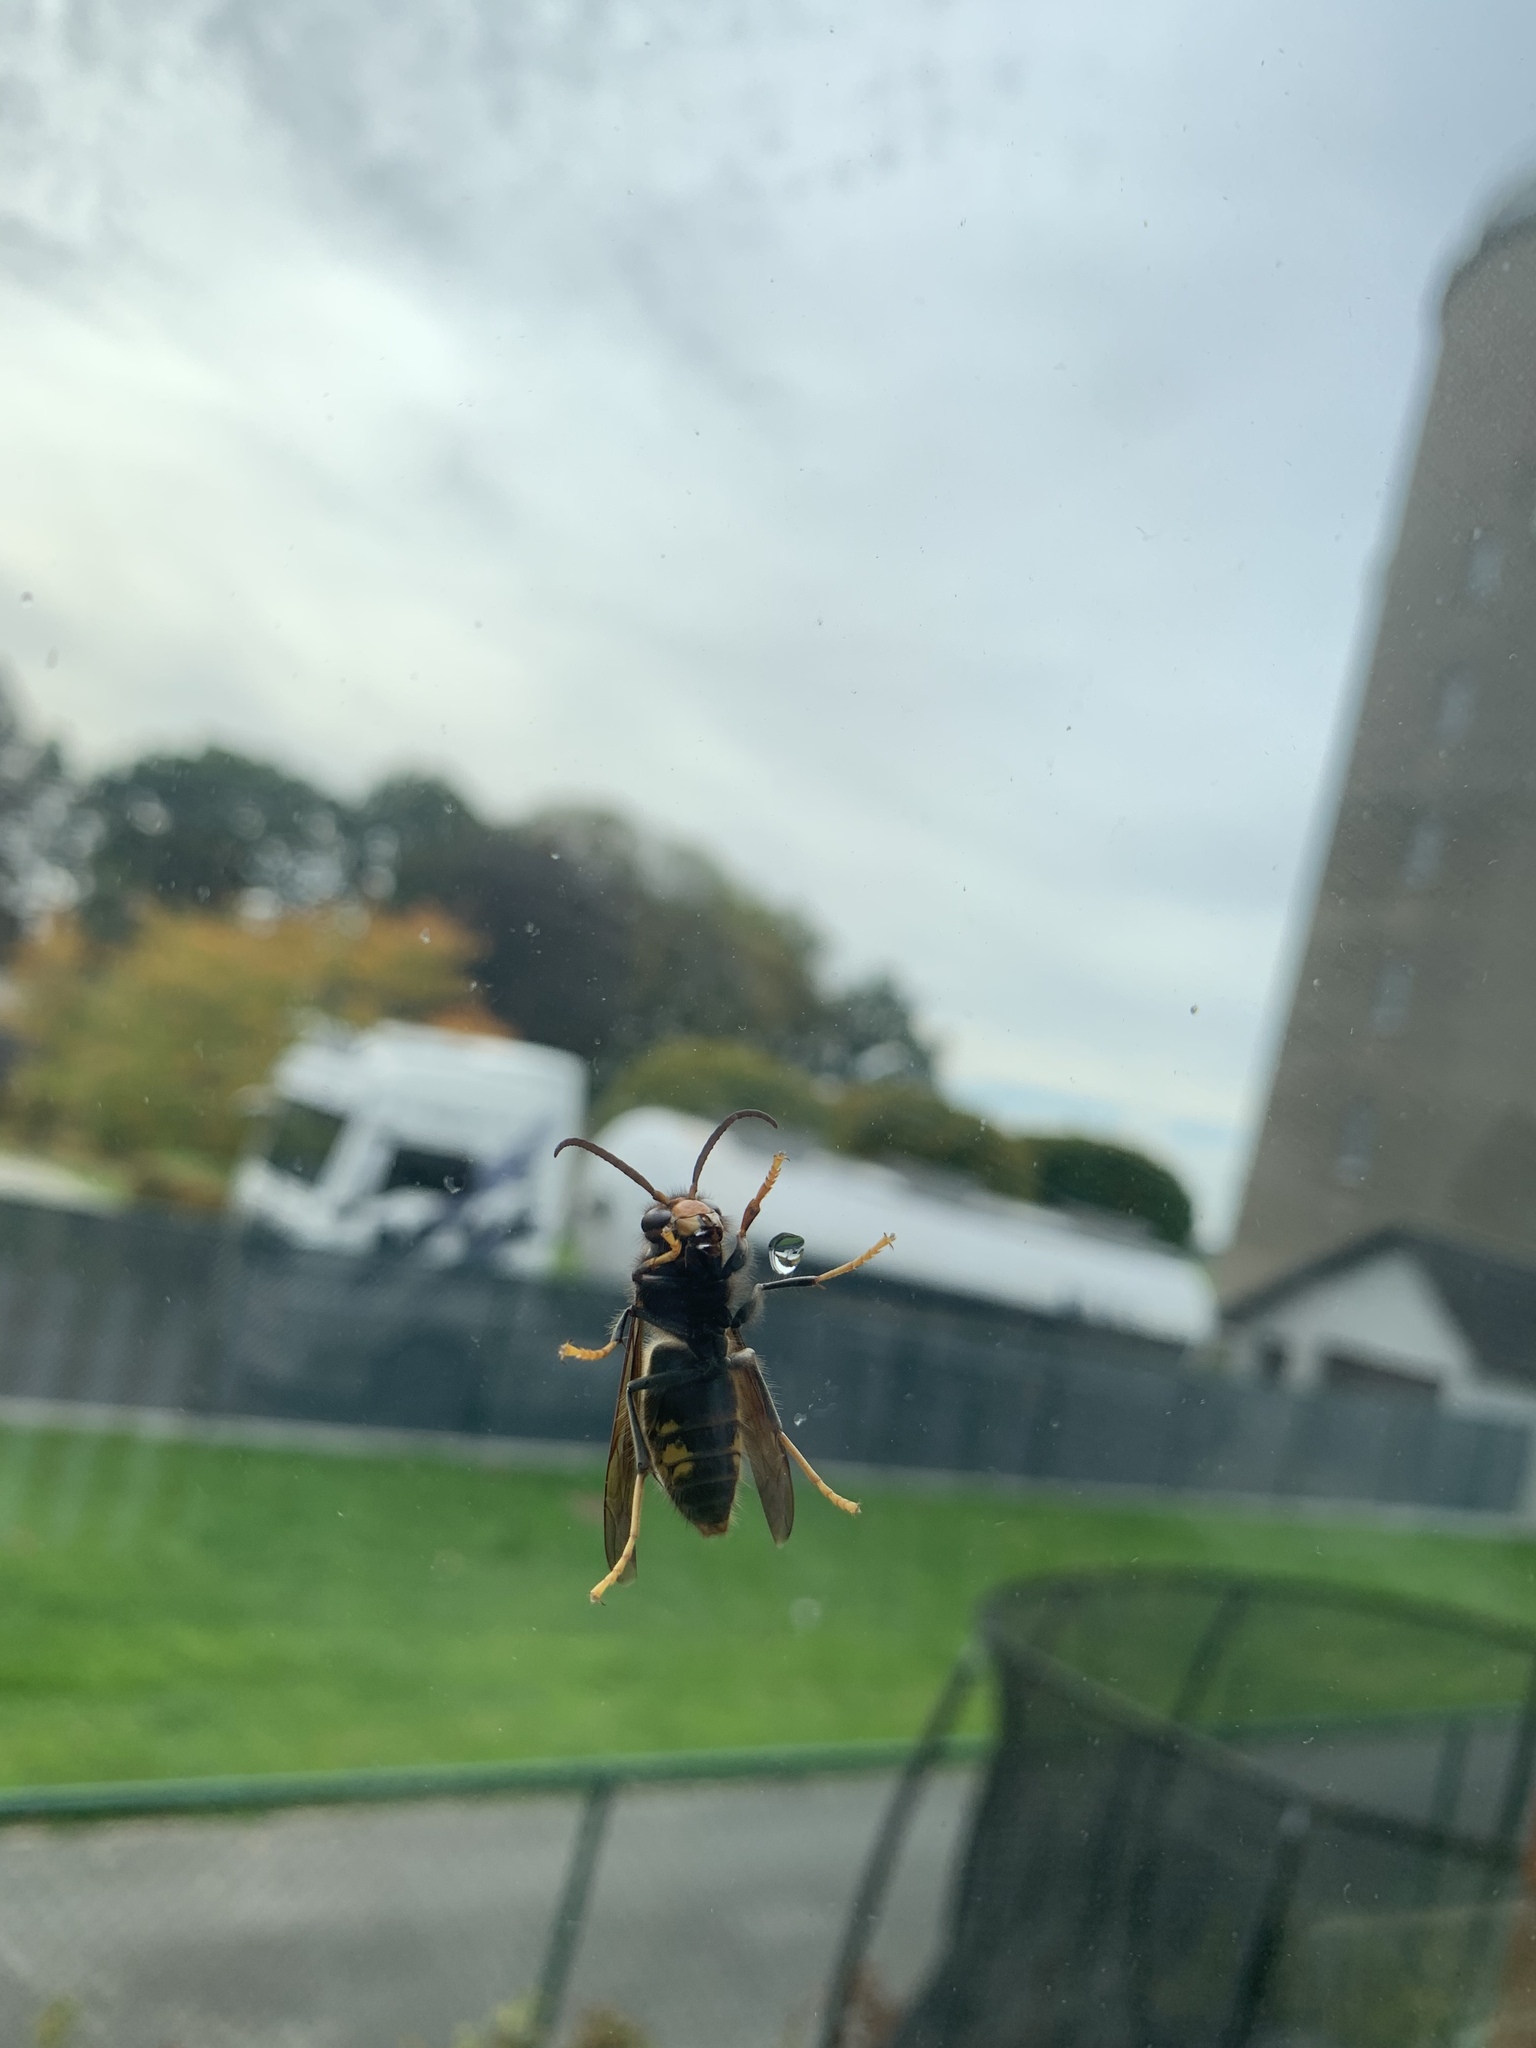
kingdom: Animalia
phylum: Arthropoda
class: Insecta
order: Hymenoptera
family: Vespidae
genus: Vespa
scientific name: Vespa velutina
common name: Asian hornet
